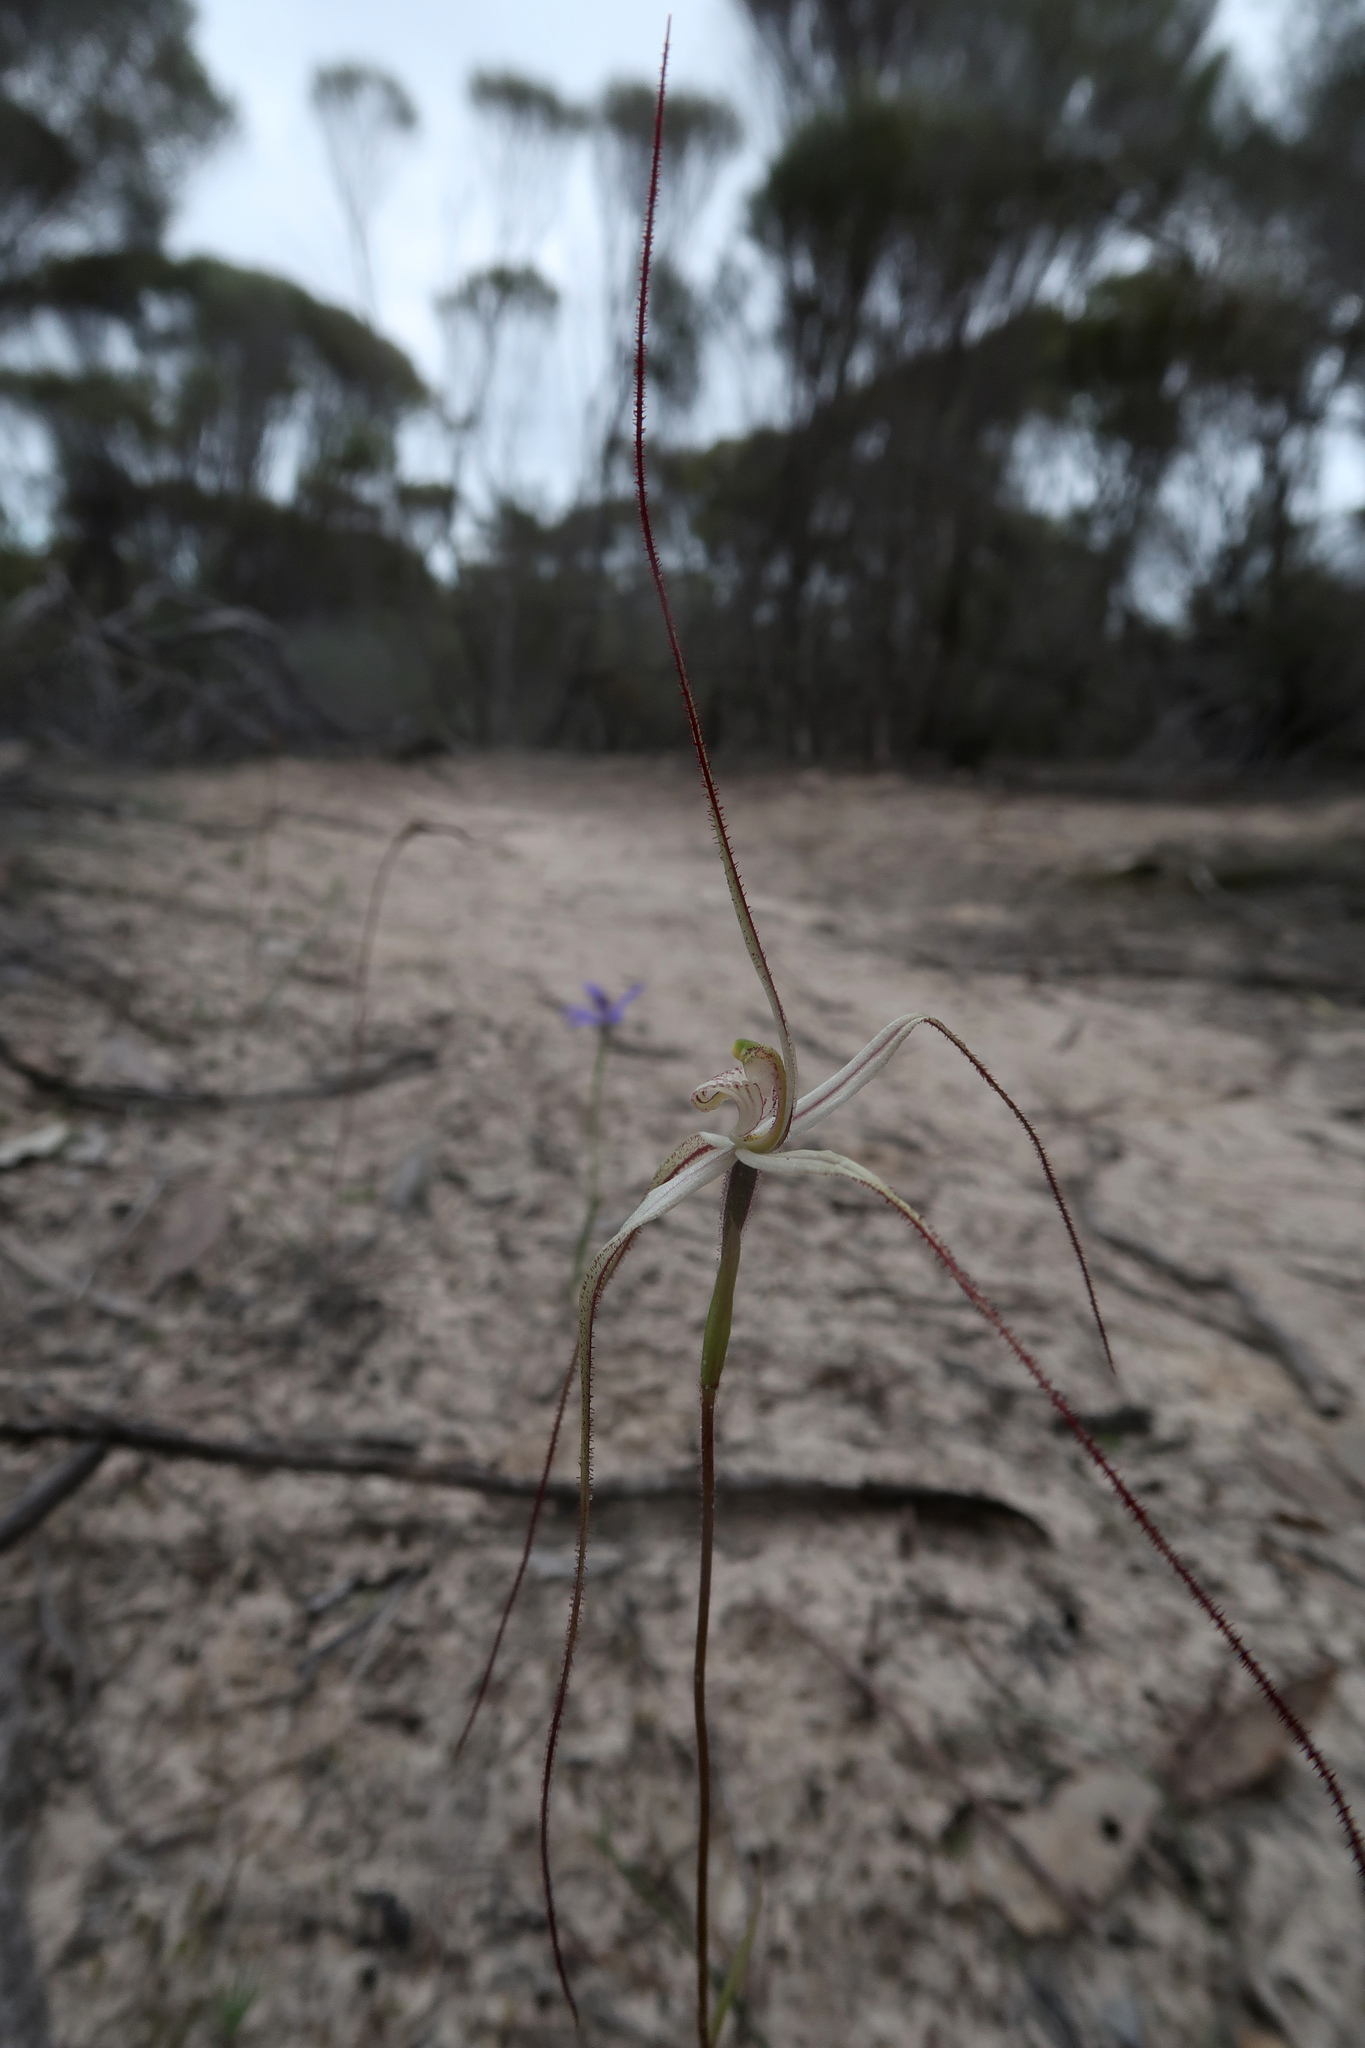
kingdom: Plantae
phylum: Tracheophyta
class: Liliopsida
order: Asparagales
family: Orchidaceae
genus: Caladenia
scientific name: Caladenia capillata
